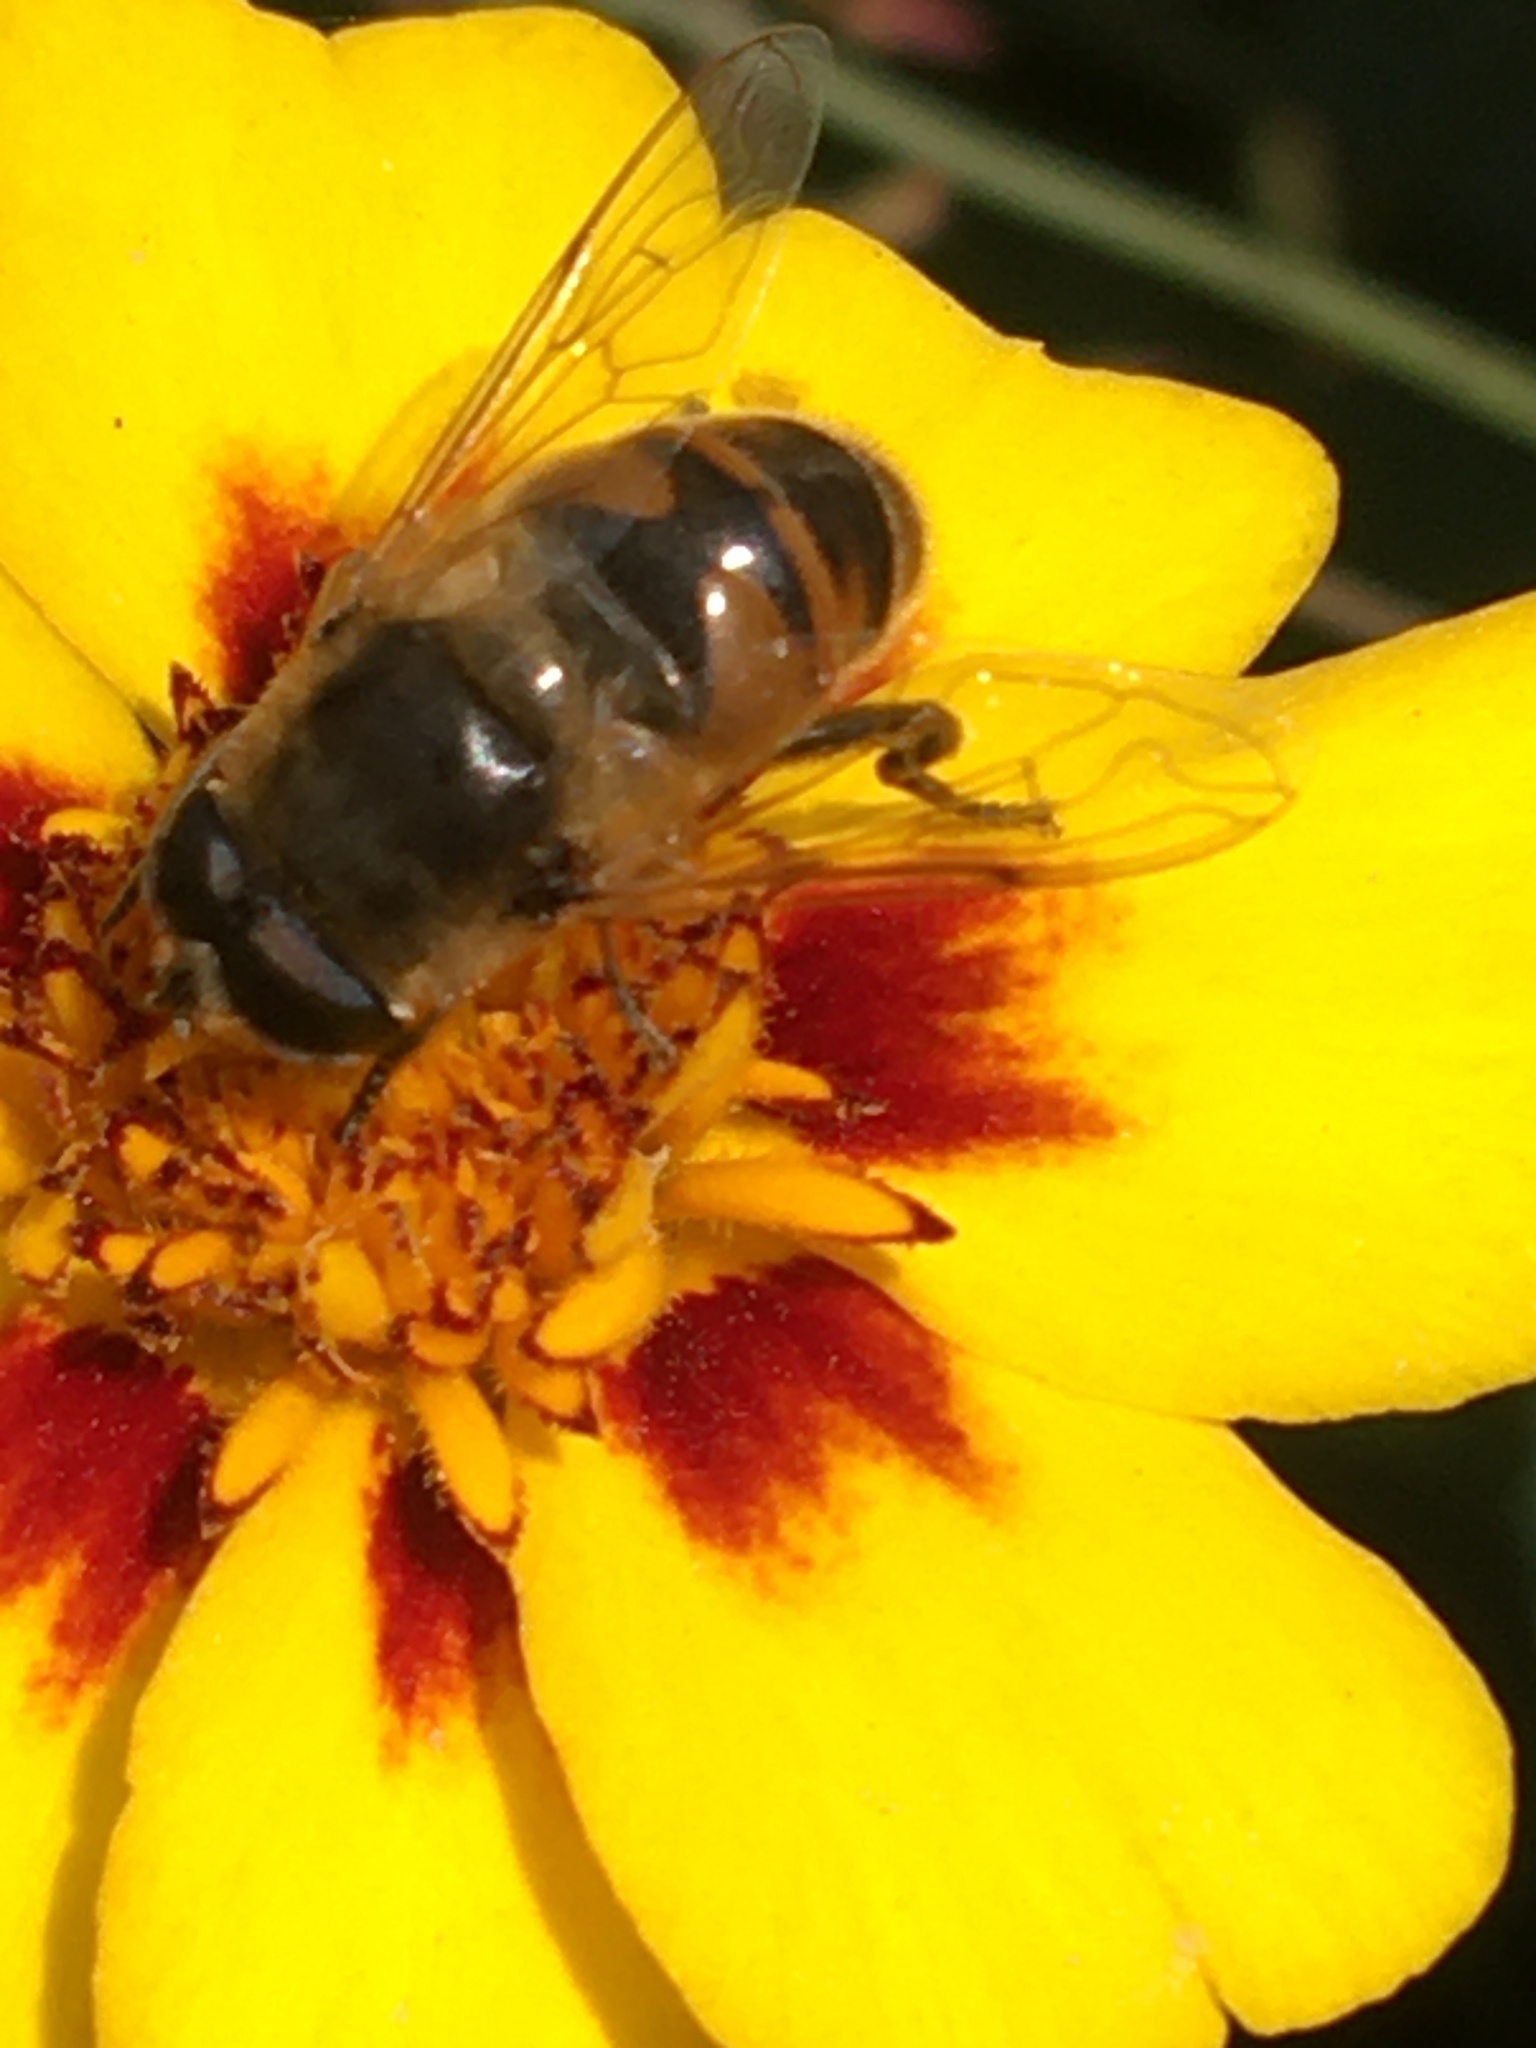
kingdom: Animalia
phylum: Arthropoda
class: Insecta
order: Diptera
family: Syrphidae
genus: Eristalis
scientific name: Eristalis tenax
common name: Drone fly
